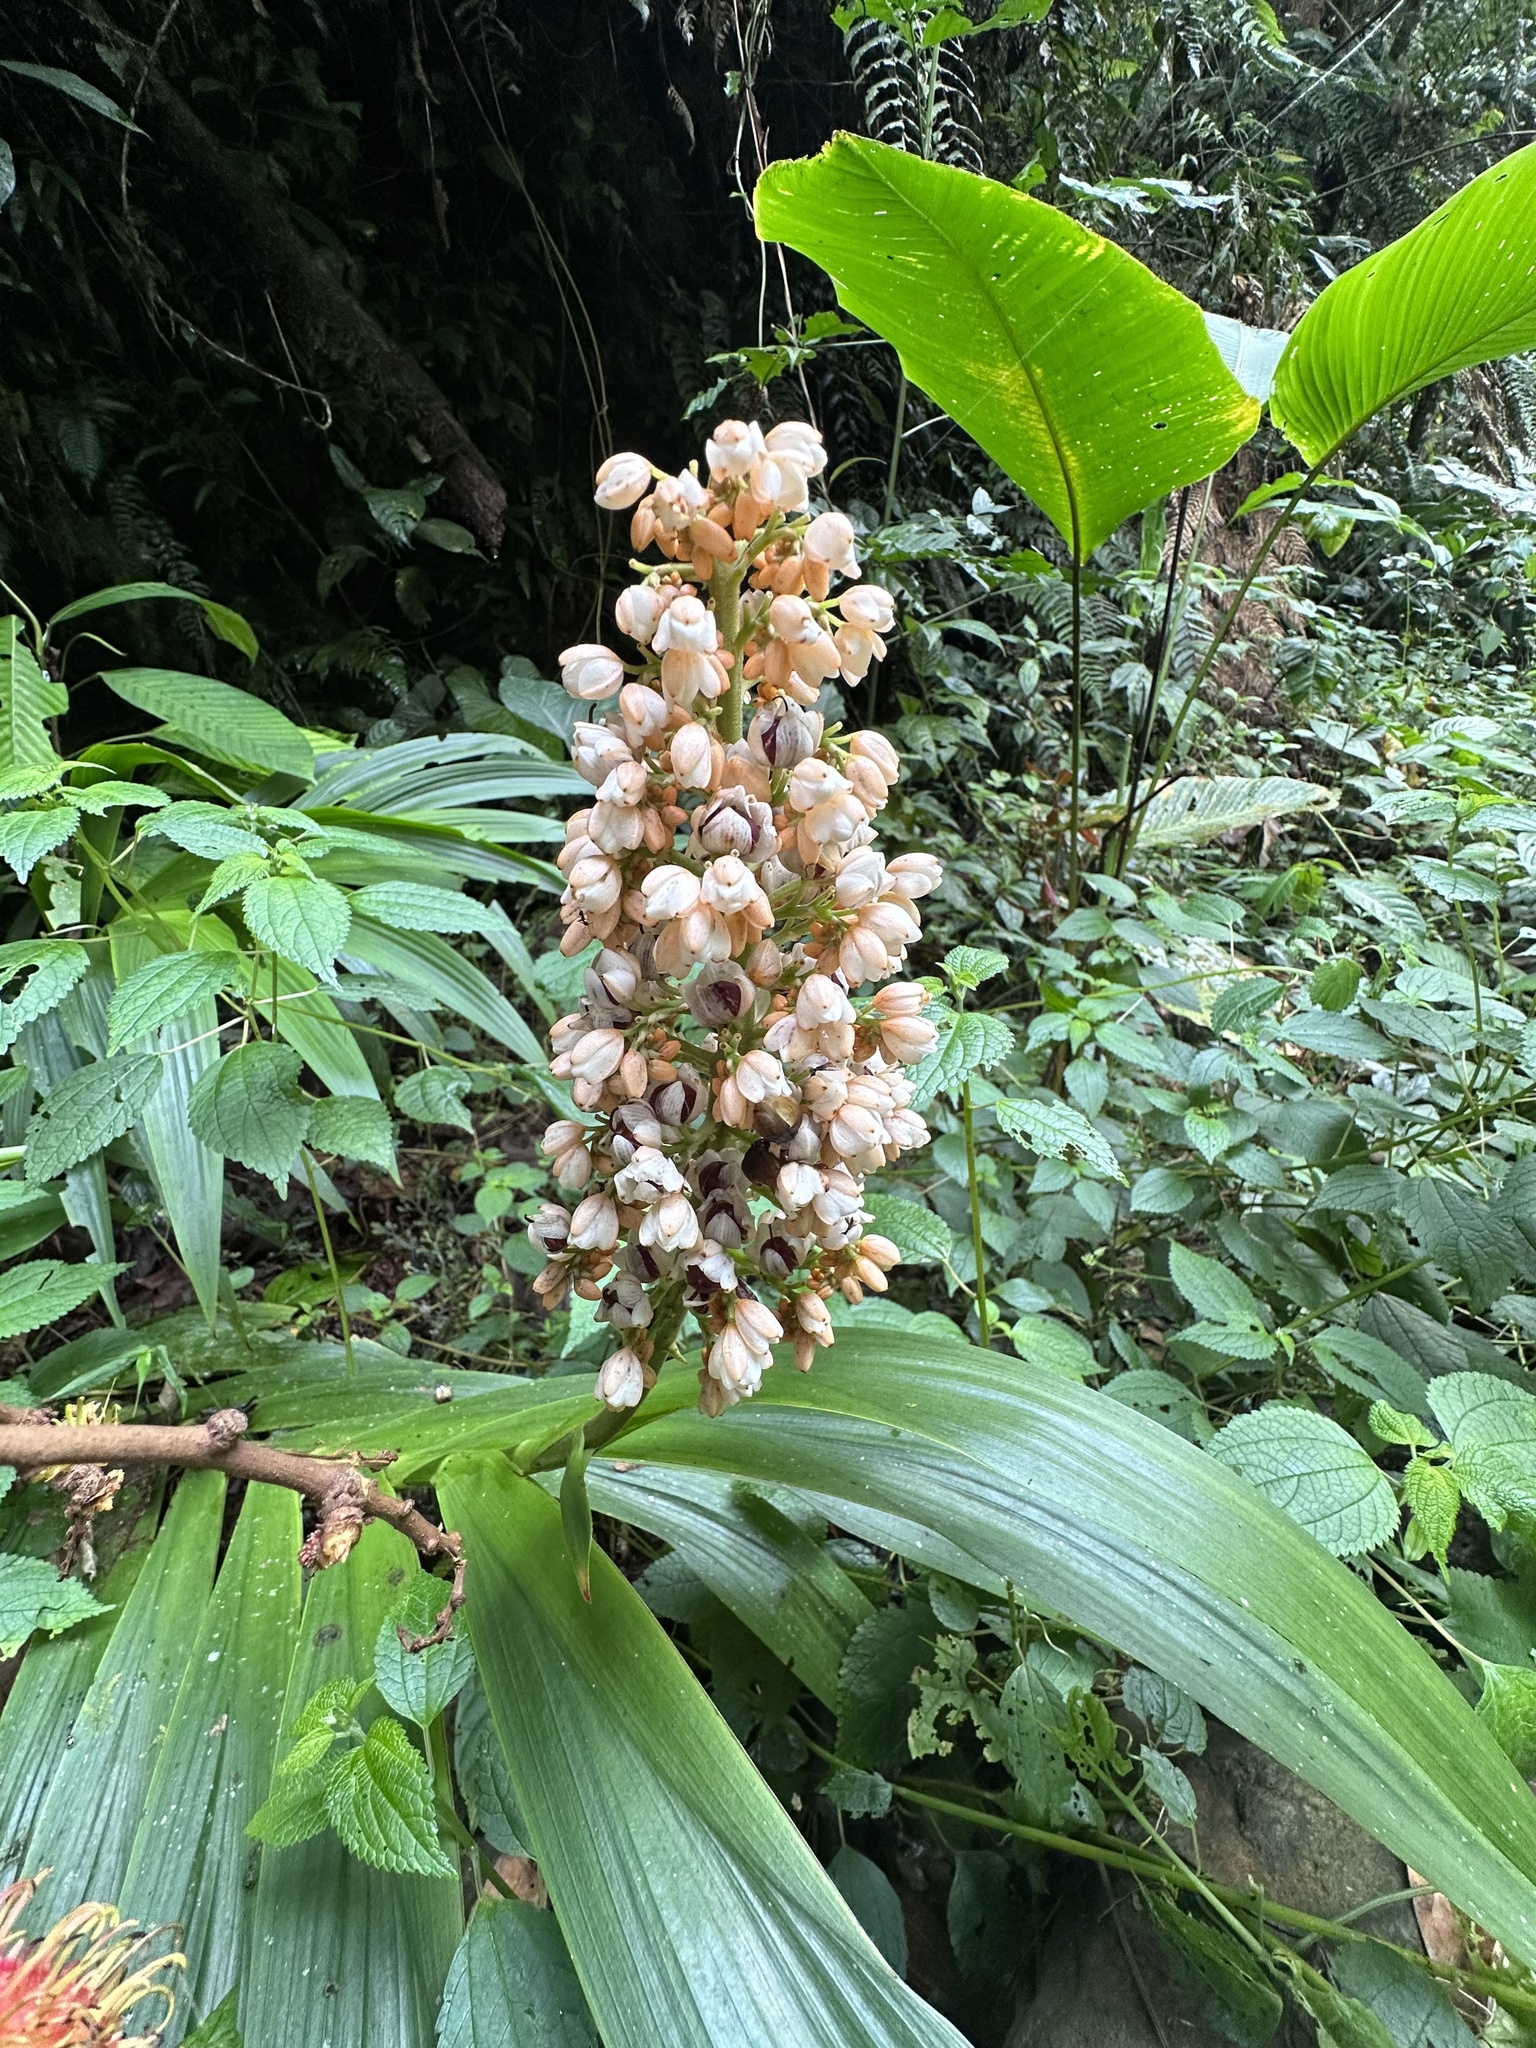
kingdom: Plantae
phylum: Tracheophyta
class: Liliopsida
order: Commelinales
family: Haemodoraceae
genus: Xiphidium
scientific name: Xiphidium caeruleum
